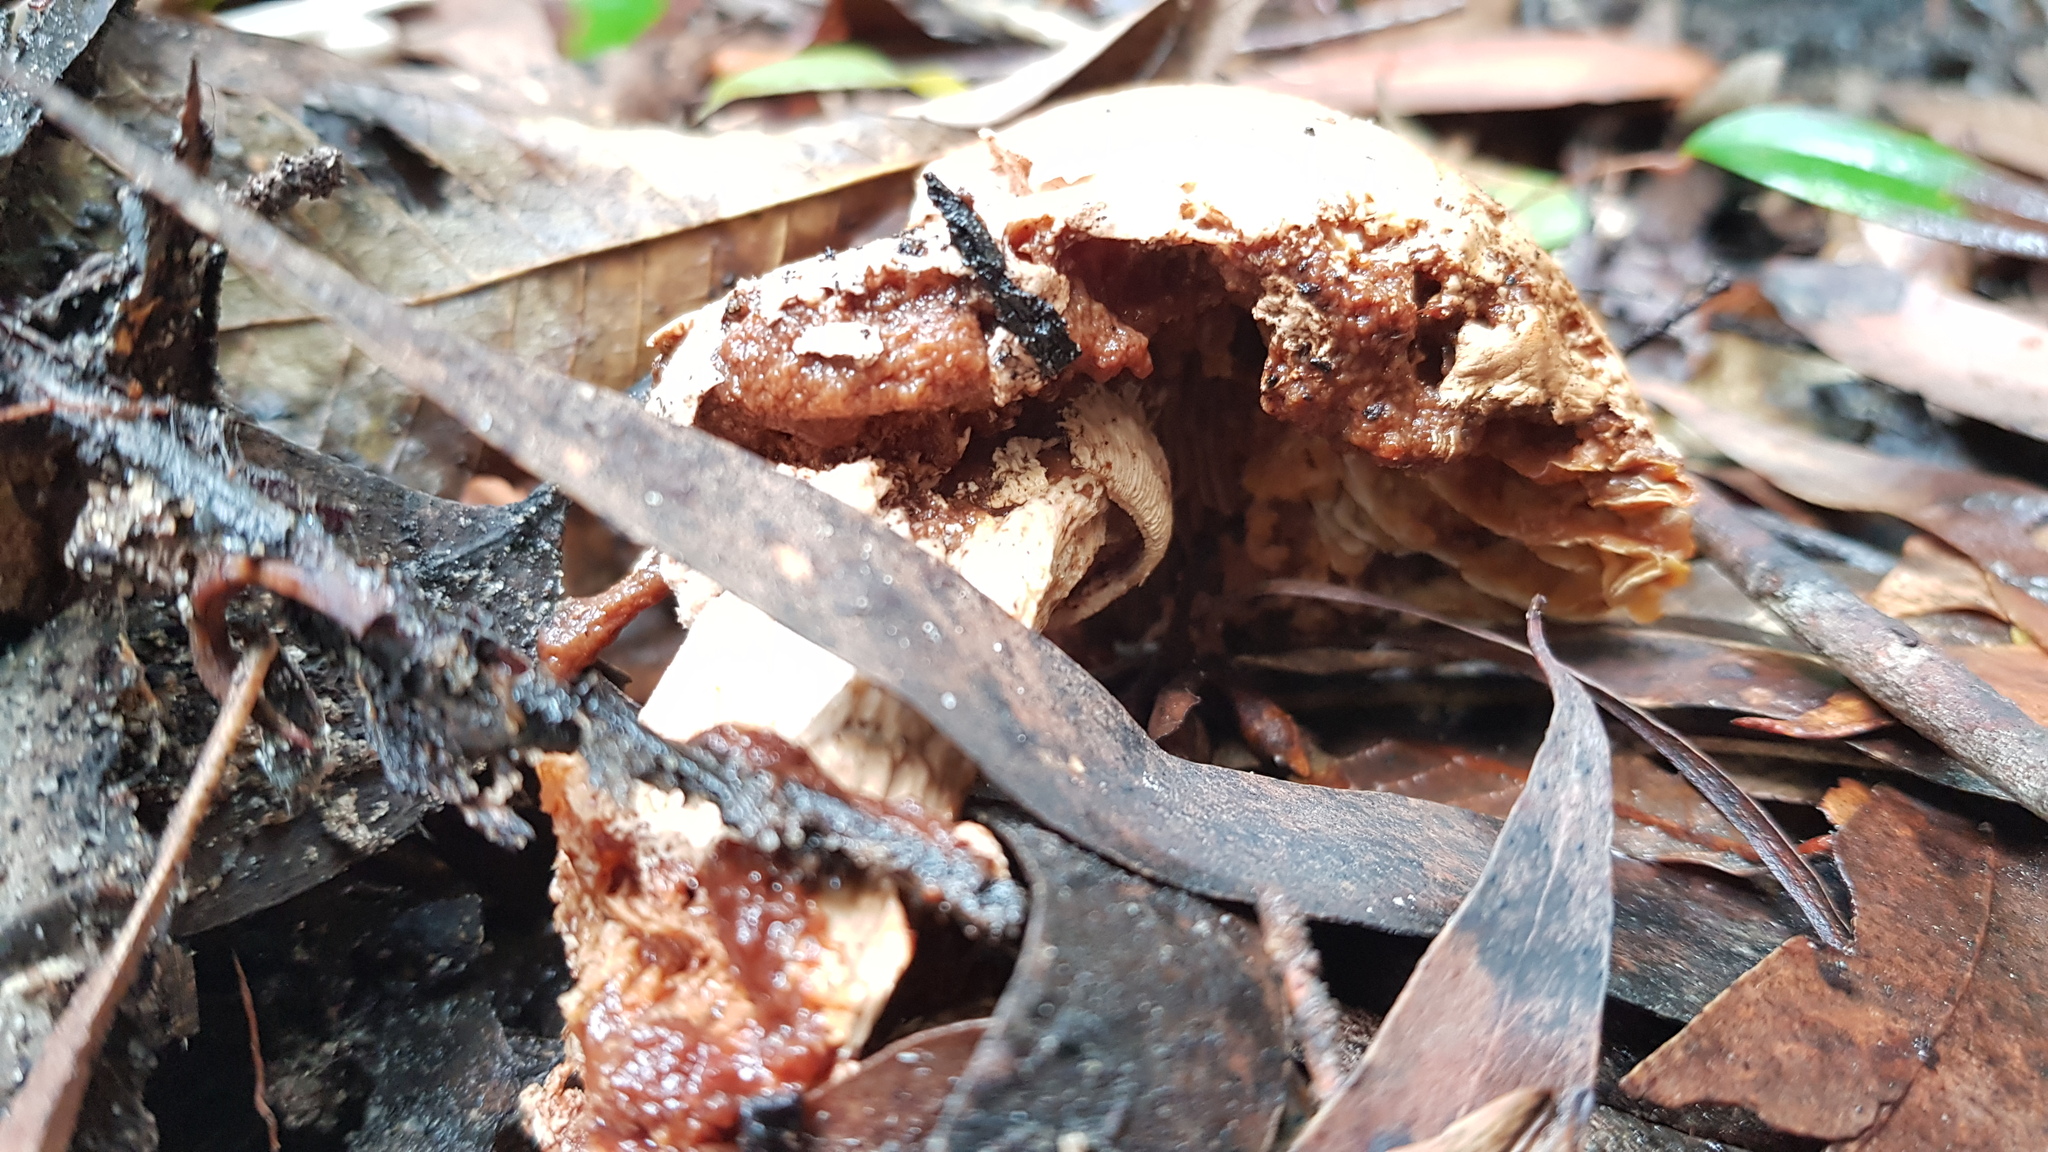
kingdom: Fungi
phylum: Basidiomycota
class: Agaricomycetes
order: Agaricales
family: Amanitaceae
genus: Amanita
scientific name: Amanita ochrophylla
